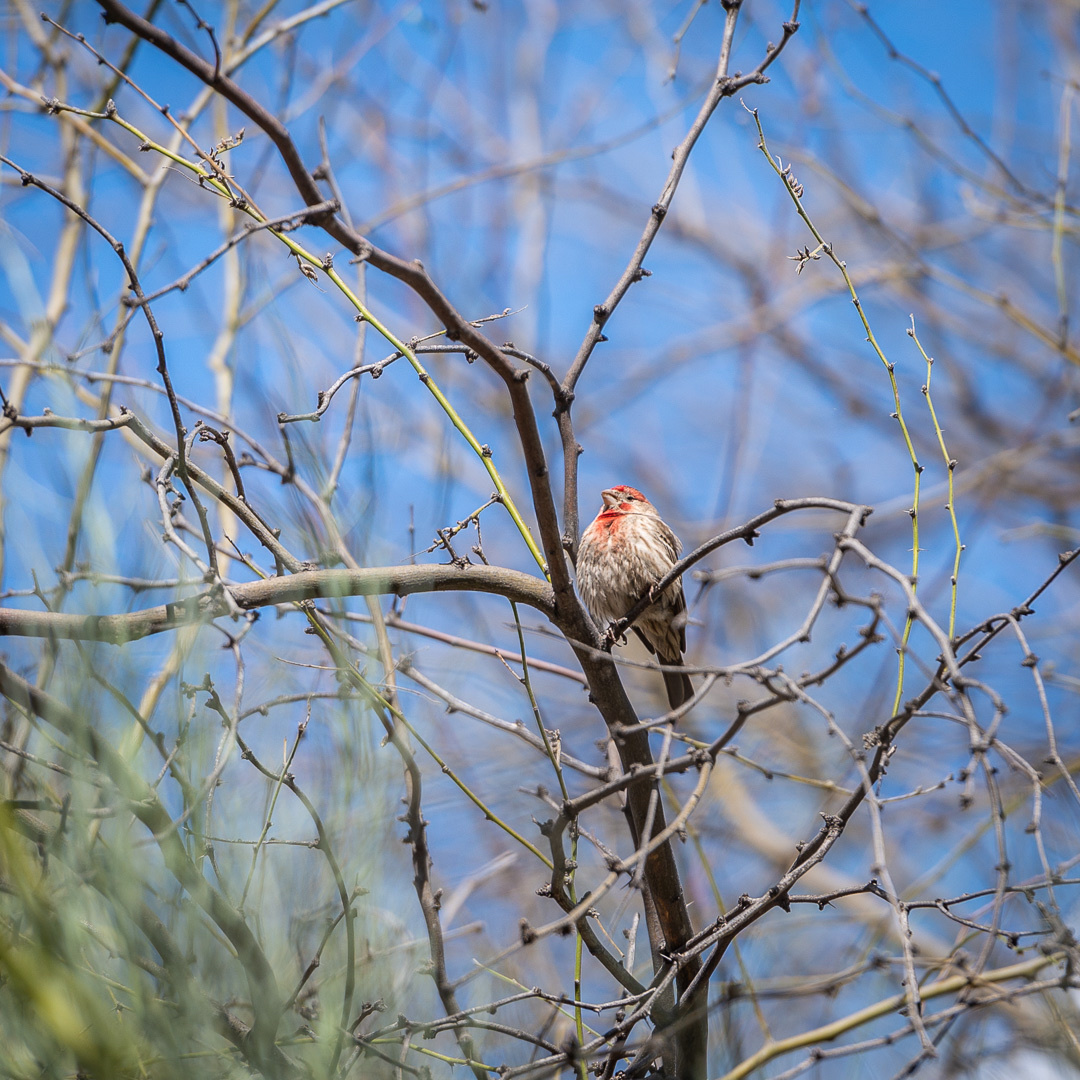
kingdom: Animalia
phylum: Chordata
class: Aves
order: Passeriformes
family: Fringillidae
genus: Haemorhous
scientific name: Haemorhous mexicanus
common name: House finch
